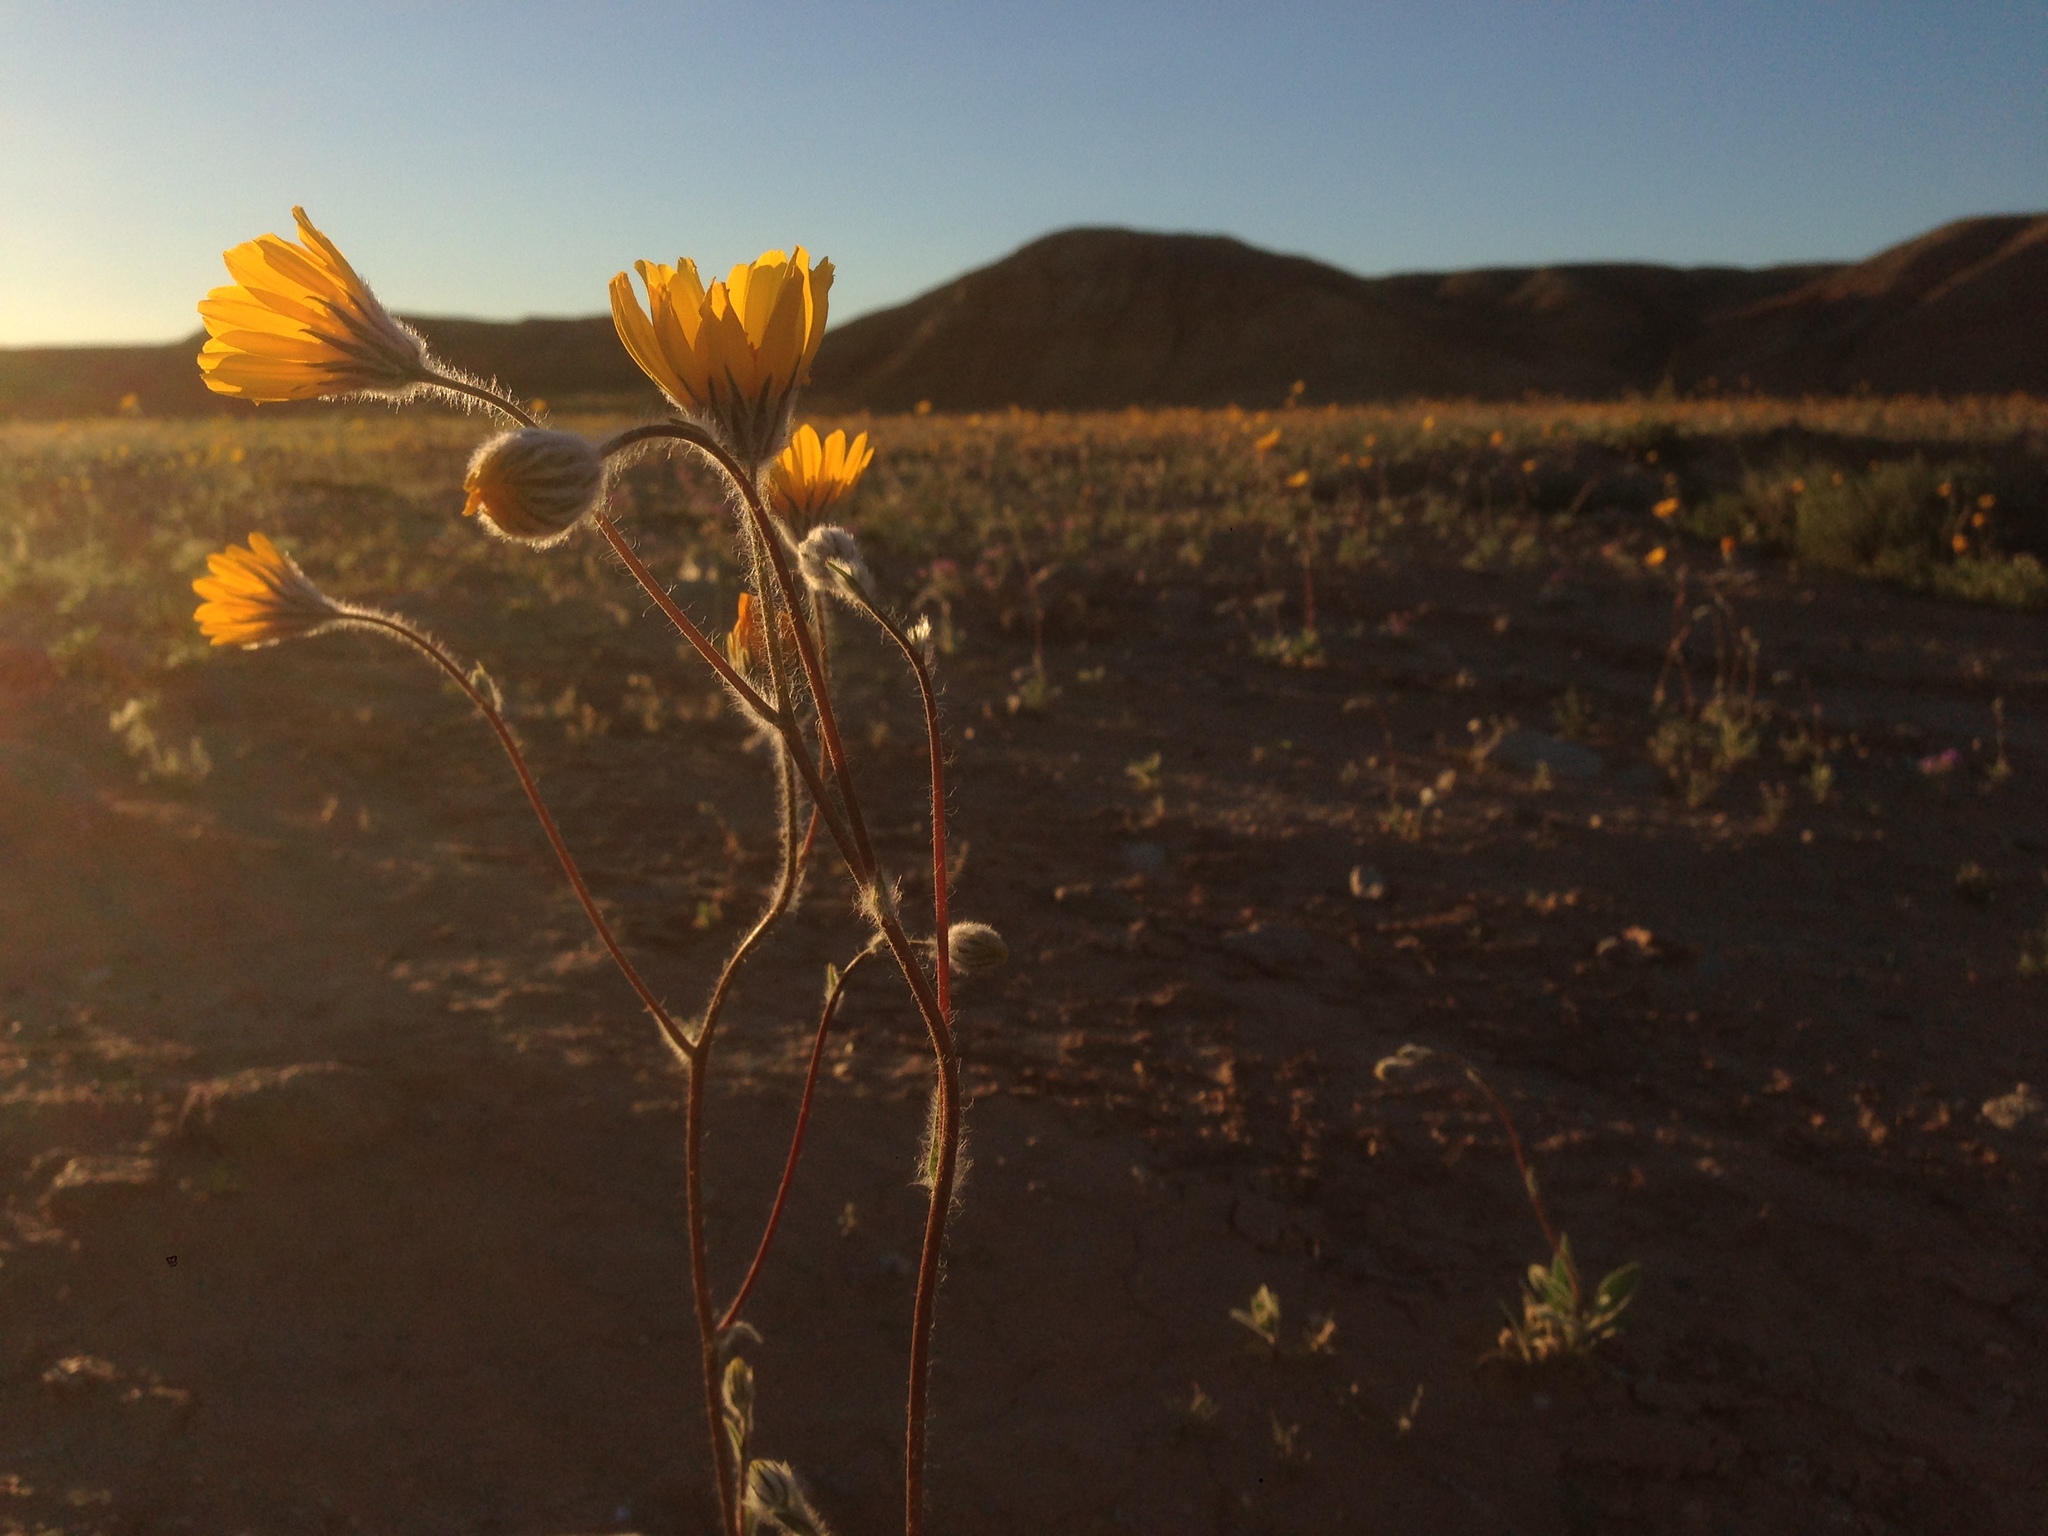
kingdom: Plantae
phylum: Tracheophyta
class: Magnoliopsida
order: Asterales
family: Asteraceae
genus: Geraea
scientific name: Geraea canescens
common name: Desert-gold
